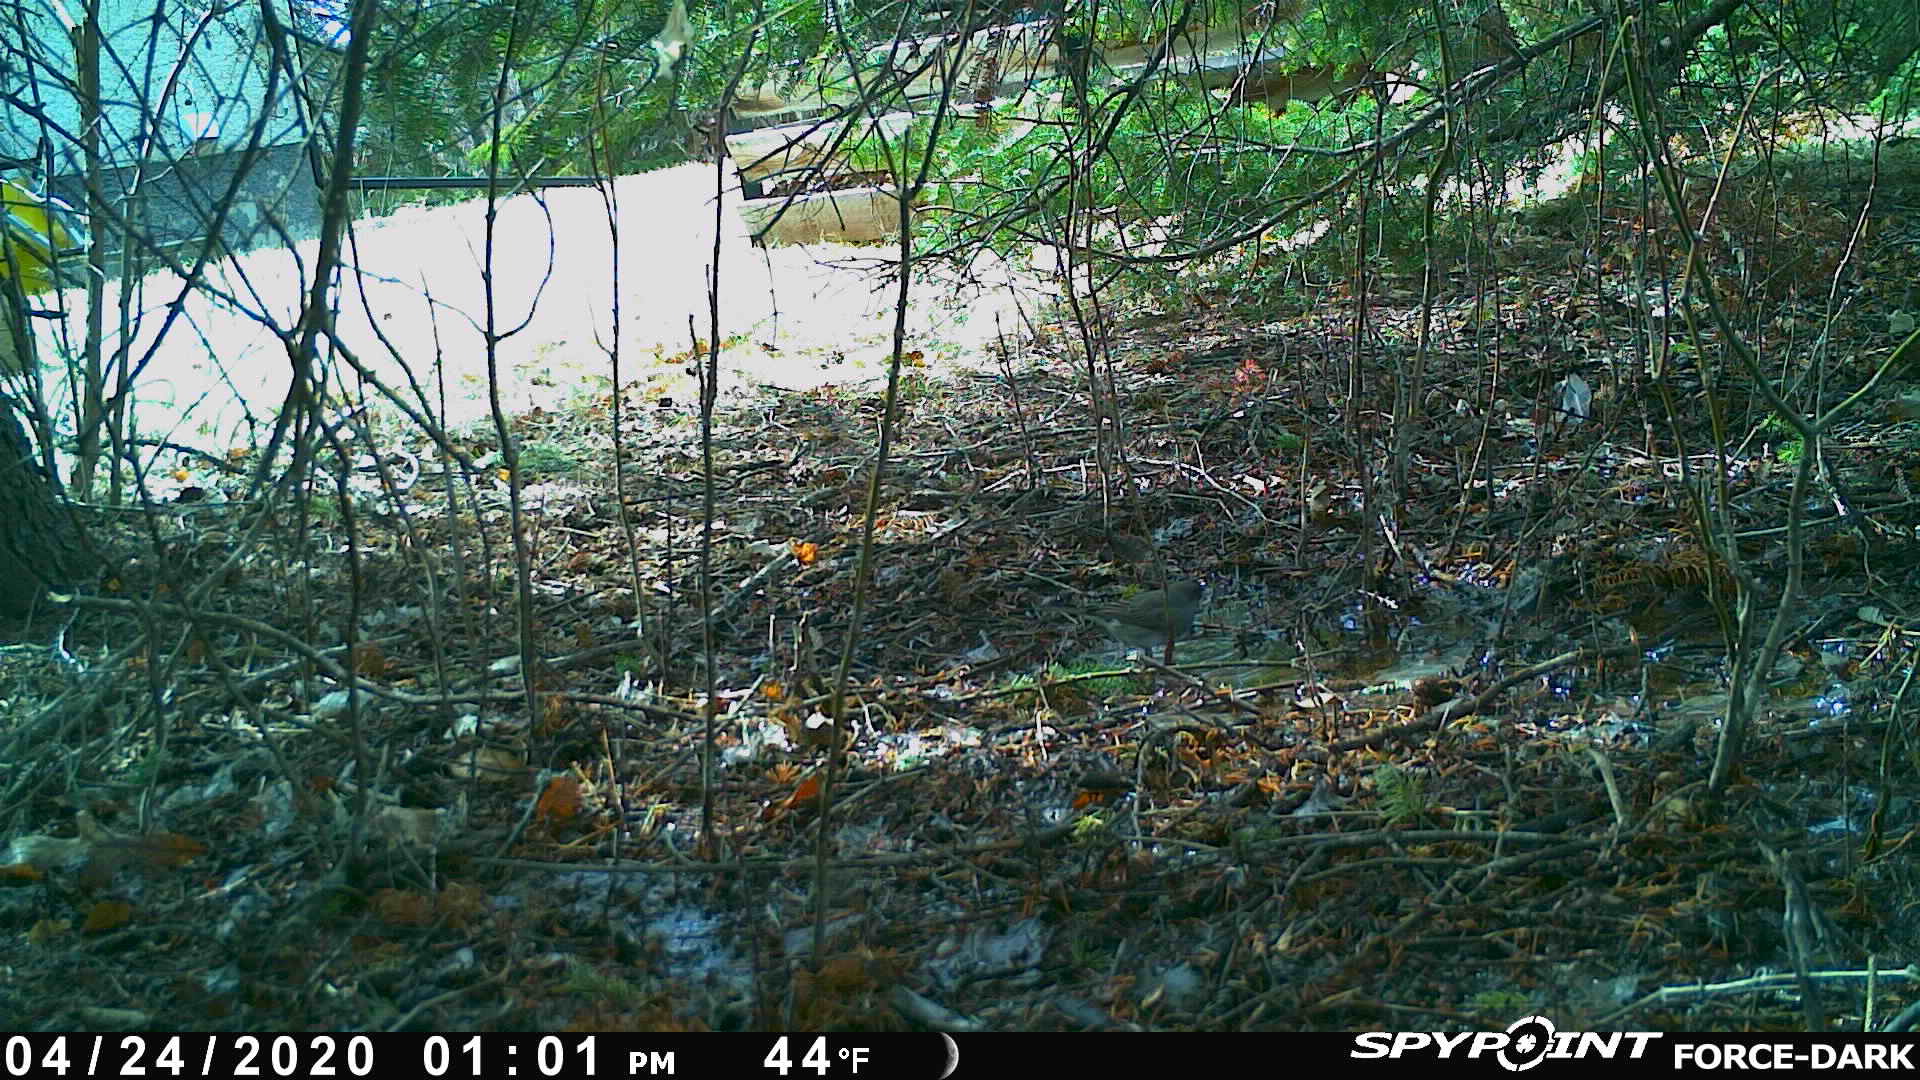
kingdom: Animalia
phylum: Chordata
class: Aves
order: Passeriformes
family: Passerellidae
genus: Junco
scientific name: Junco hyemalis
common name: Dark-eyed junco
